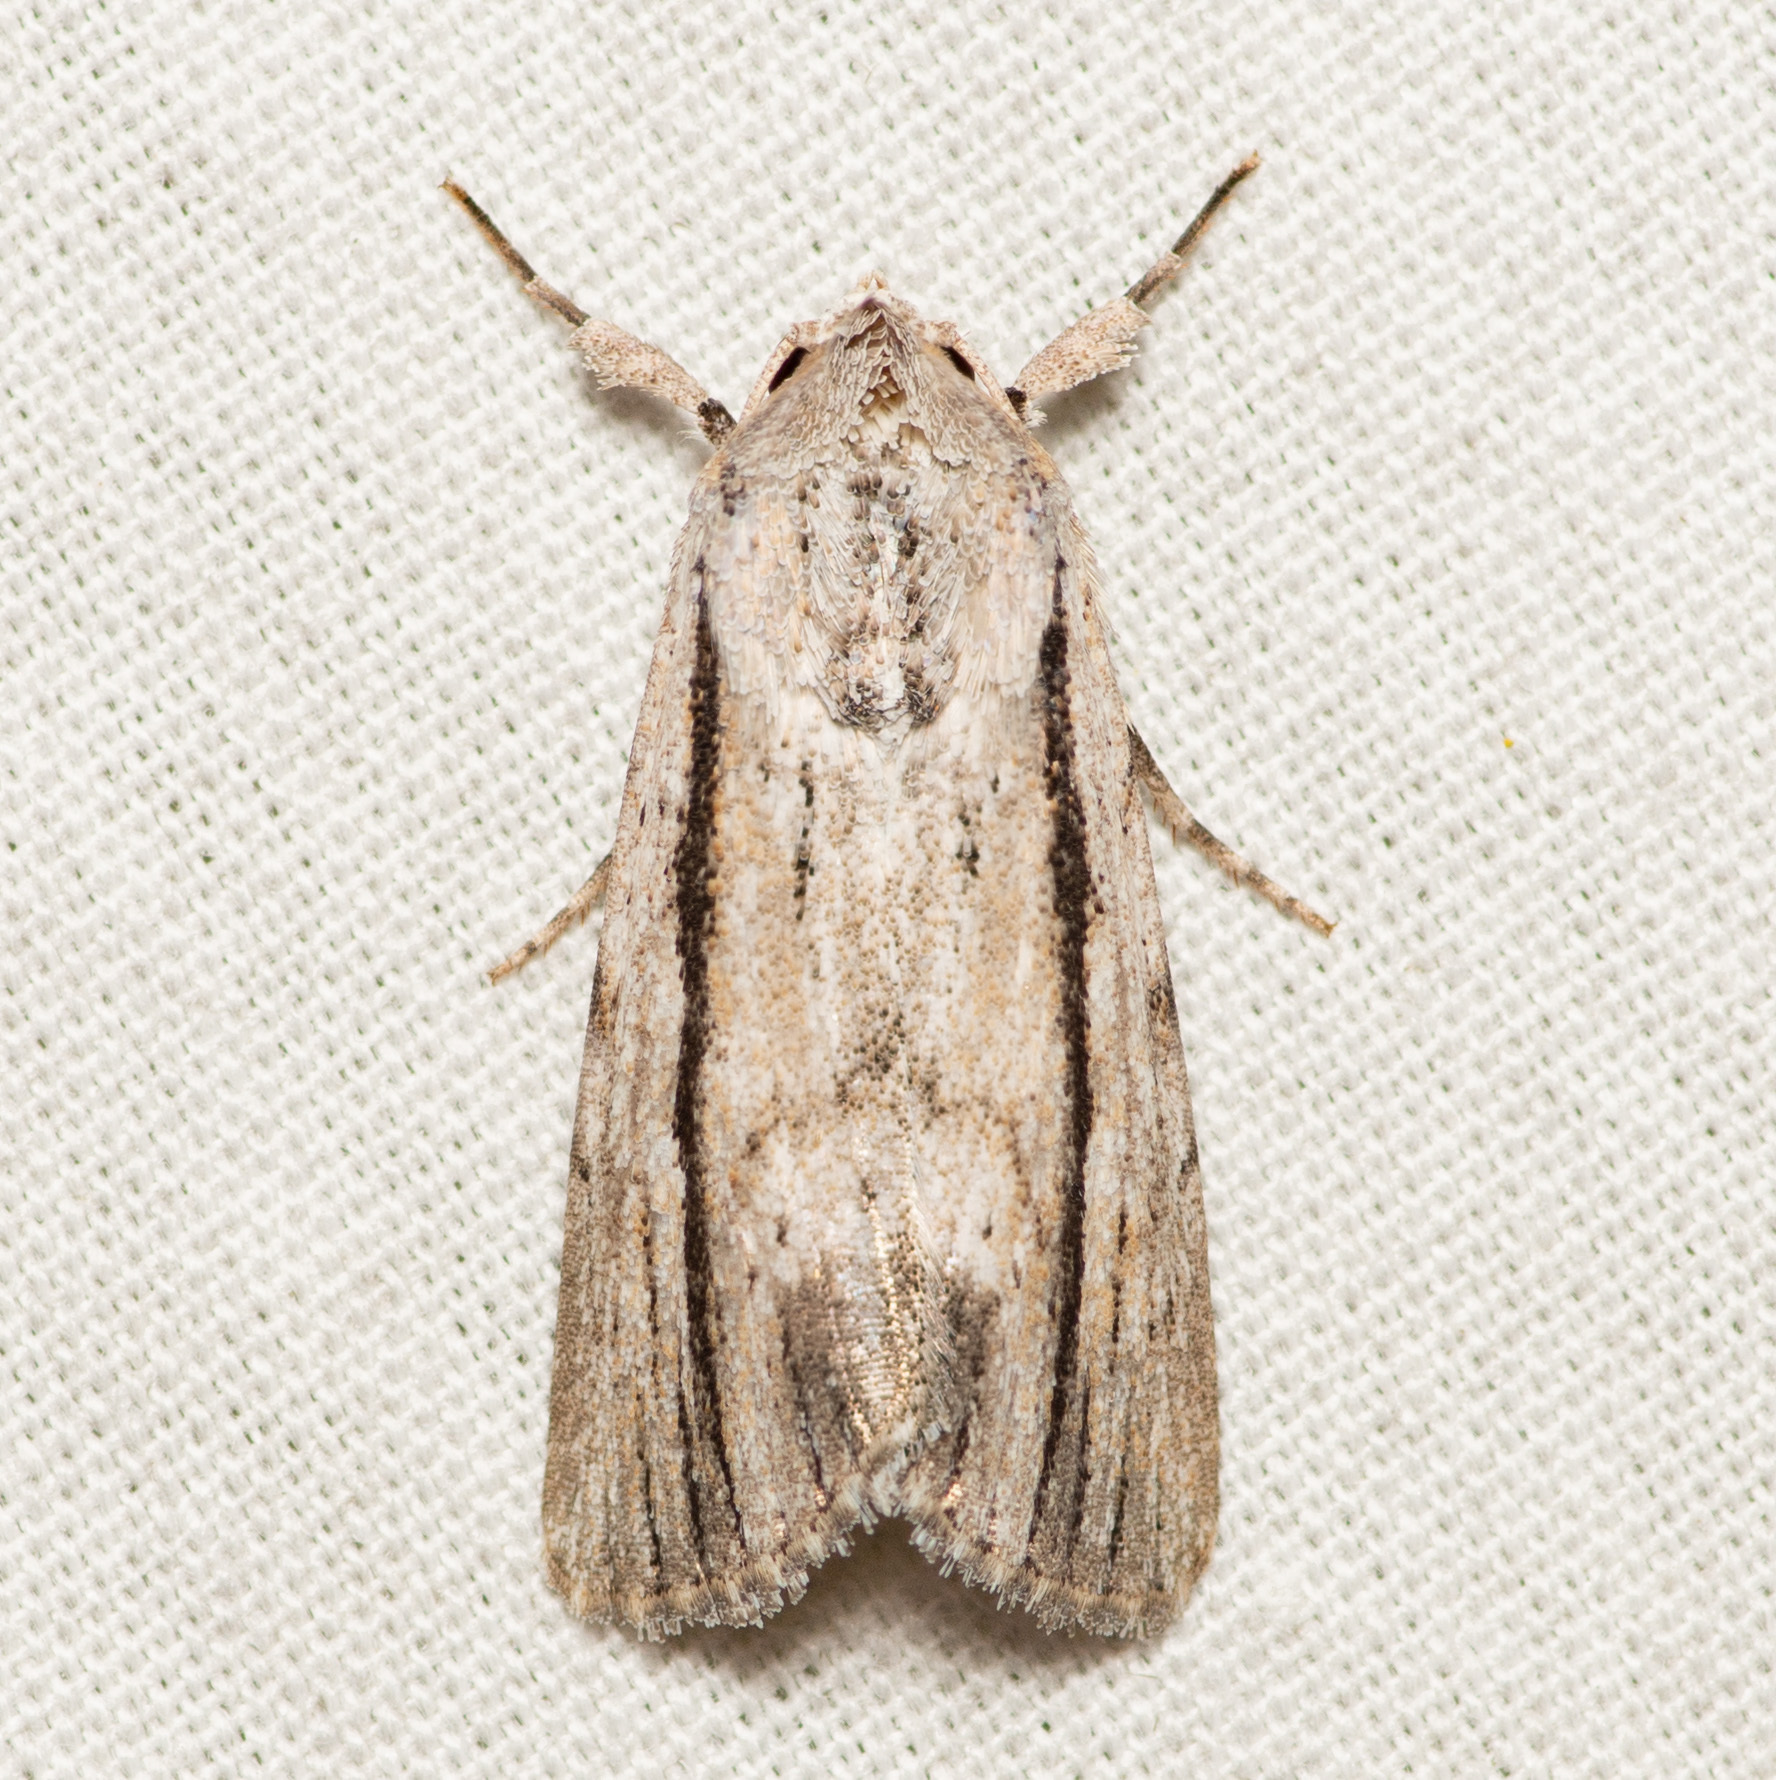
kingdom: Animalia
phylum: Arthropoda
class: Insecta
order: Lepidoptera
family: Noctuidae
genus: Catabenoides
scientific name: Catabenoides terminellus
